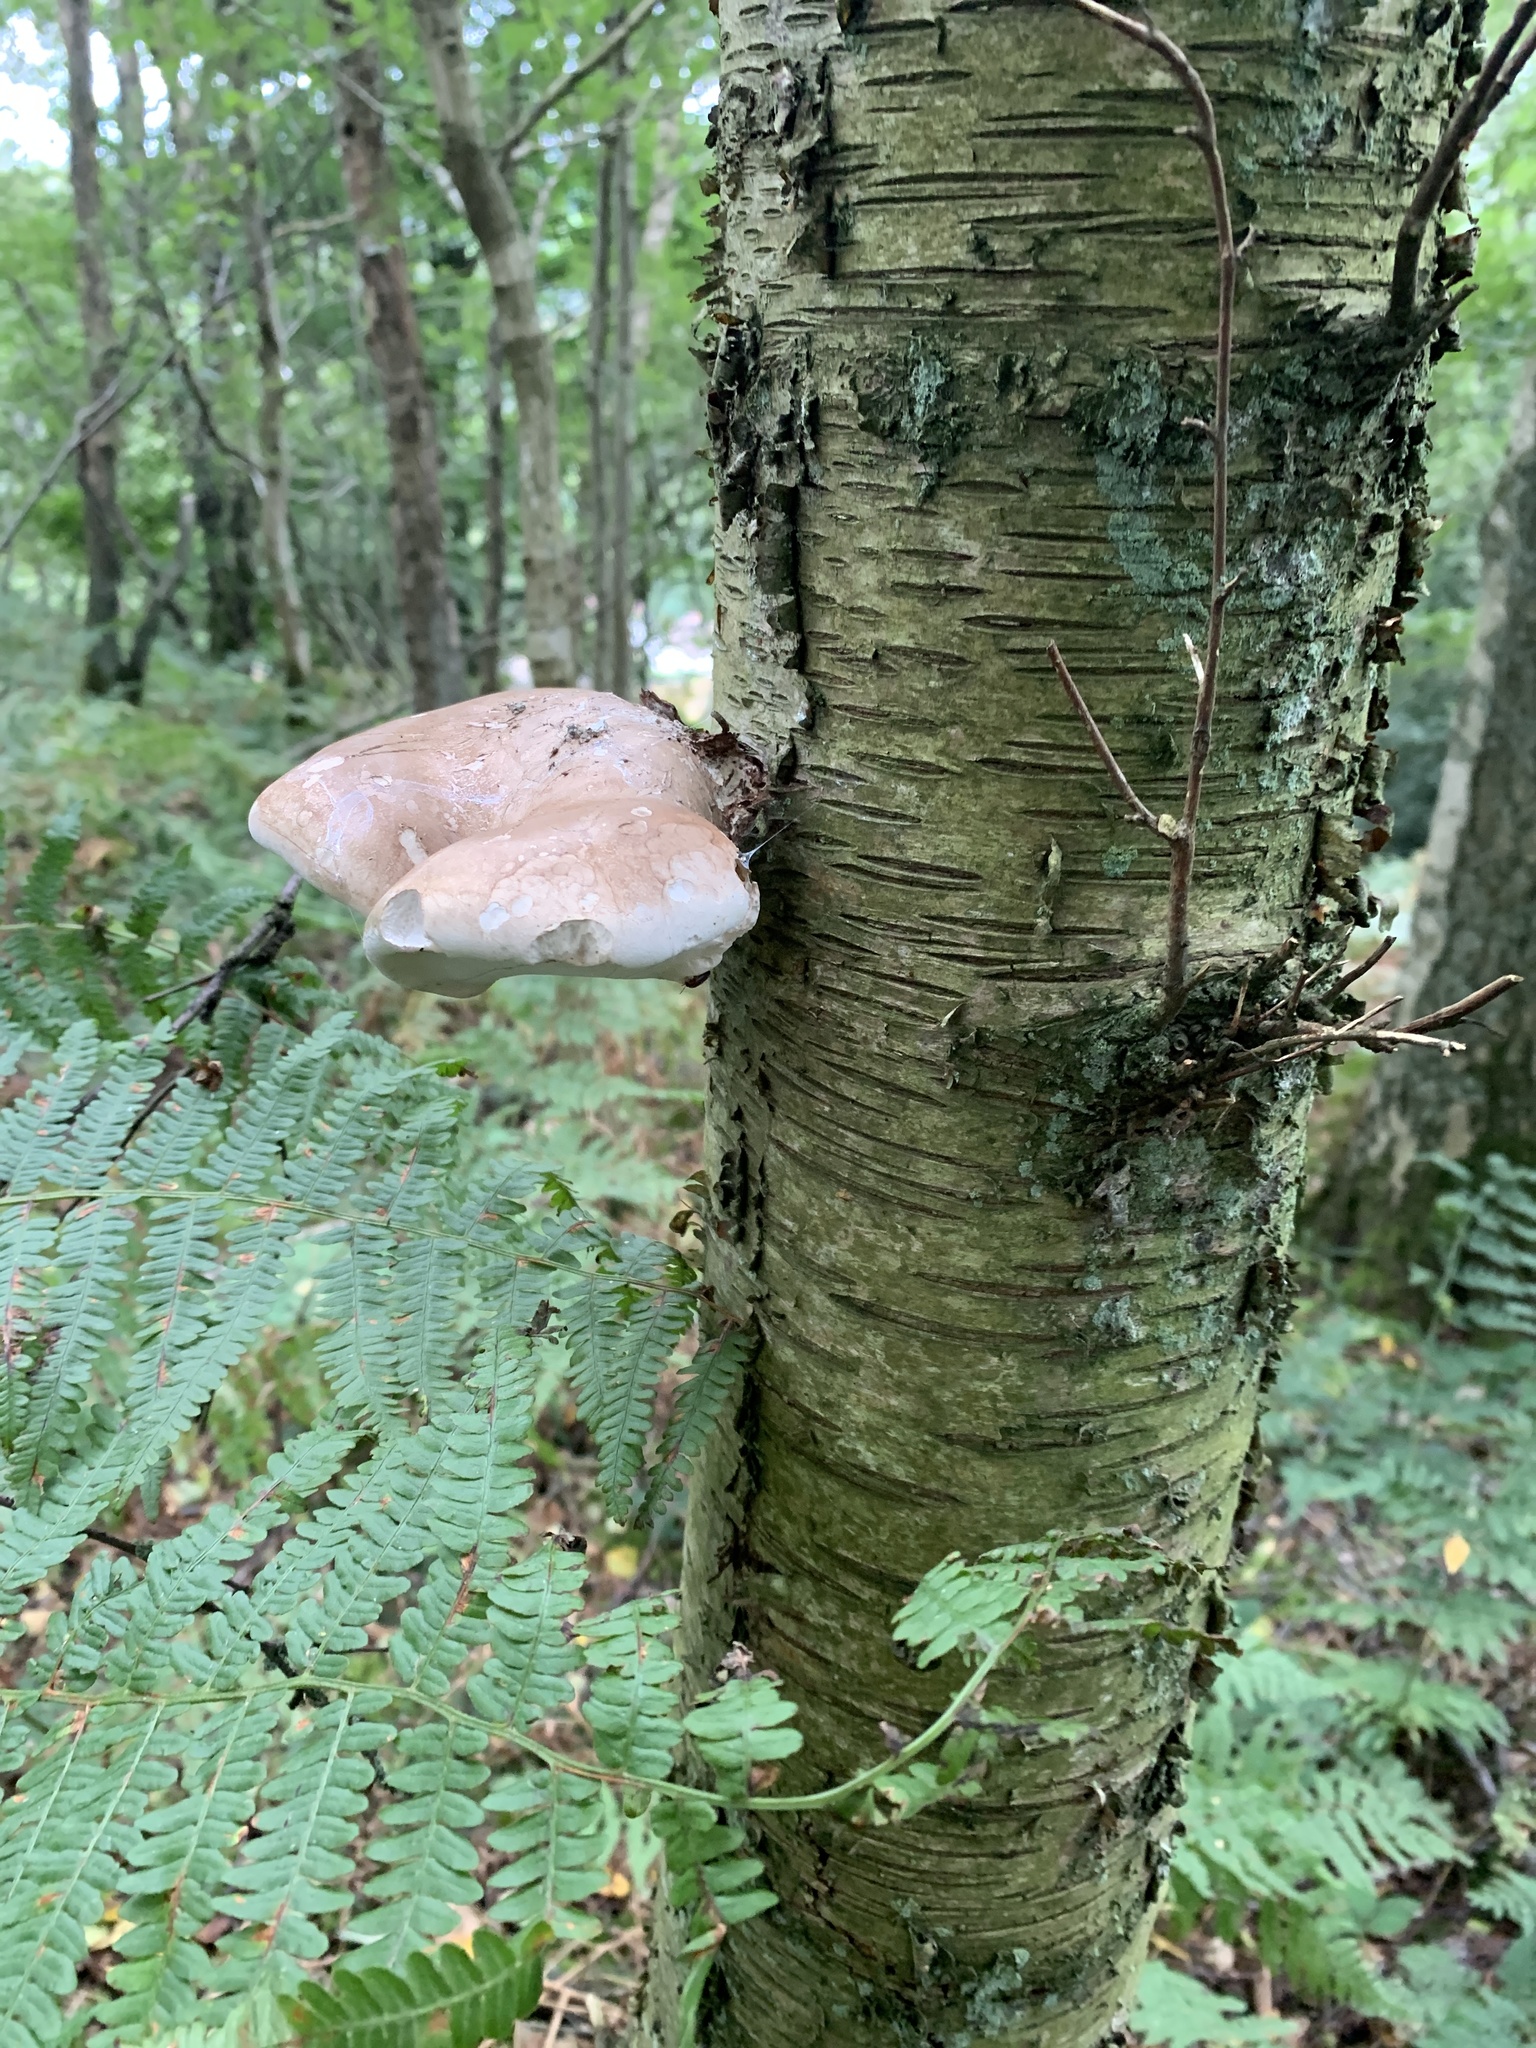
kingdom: Fungi
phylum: Basidiomycota
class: Agaricomycetes
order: Polyporales
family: Fomitopsidaceae
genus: Fomitopsis
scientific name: Fomitopsis betulina
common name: Birch polypore
